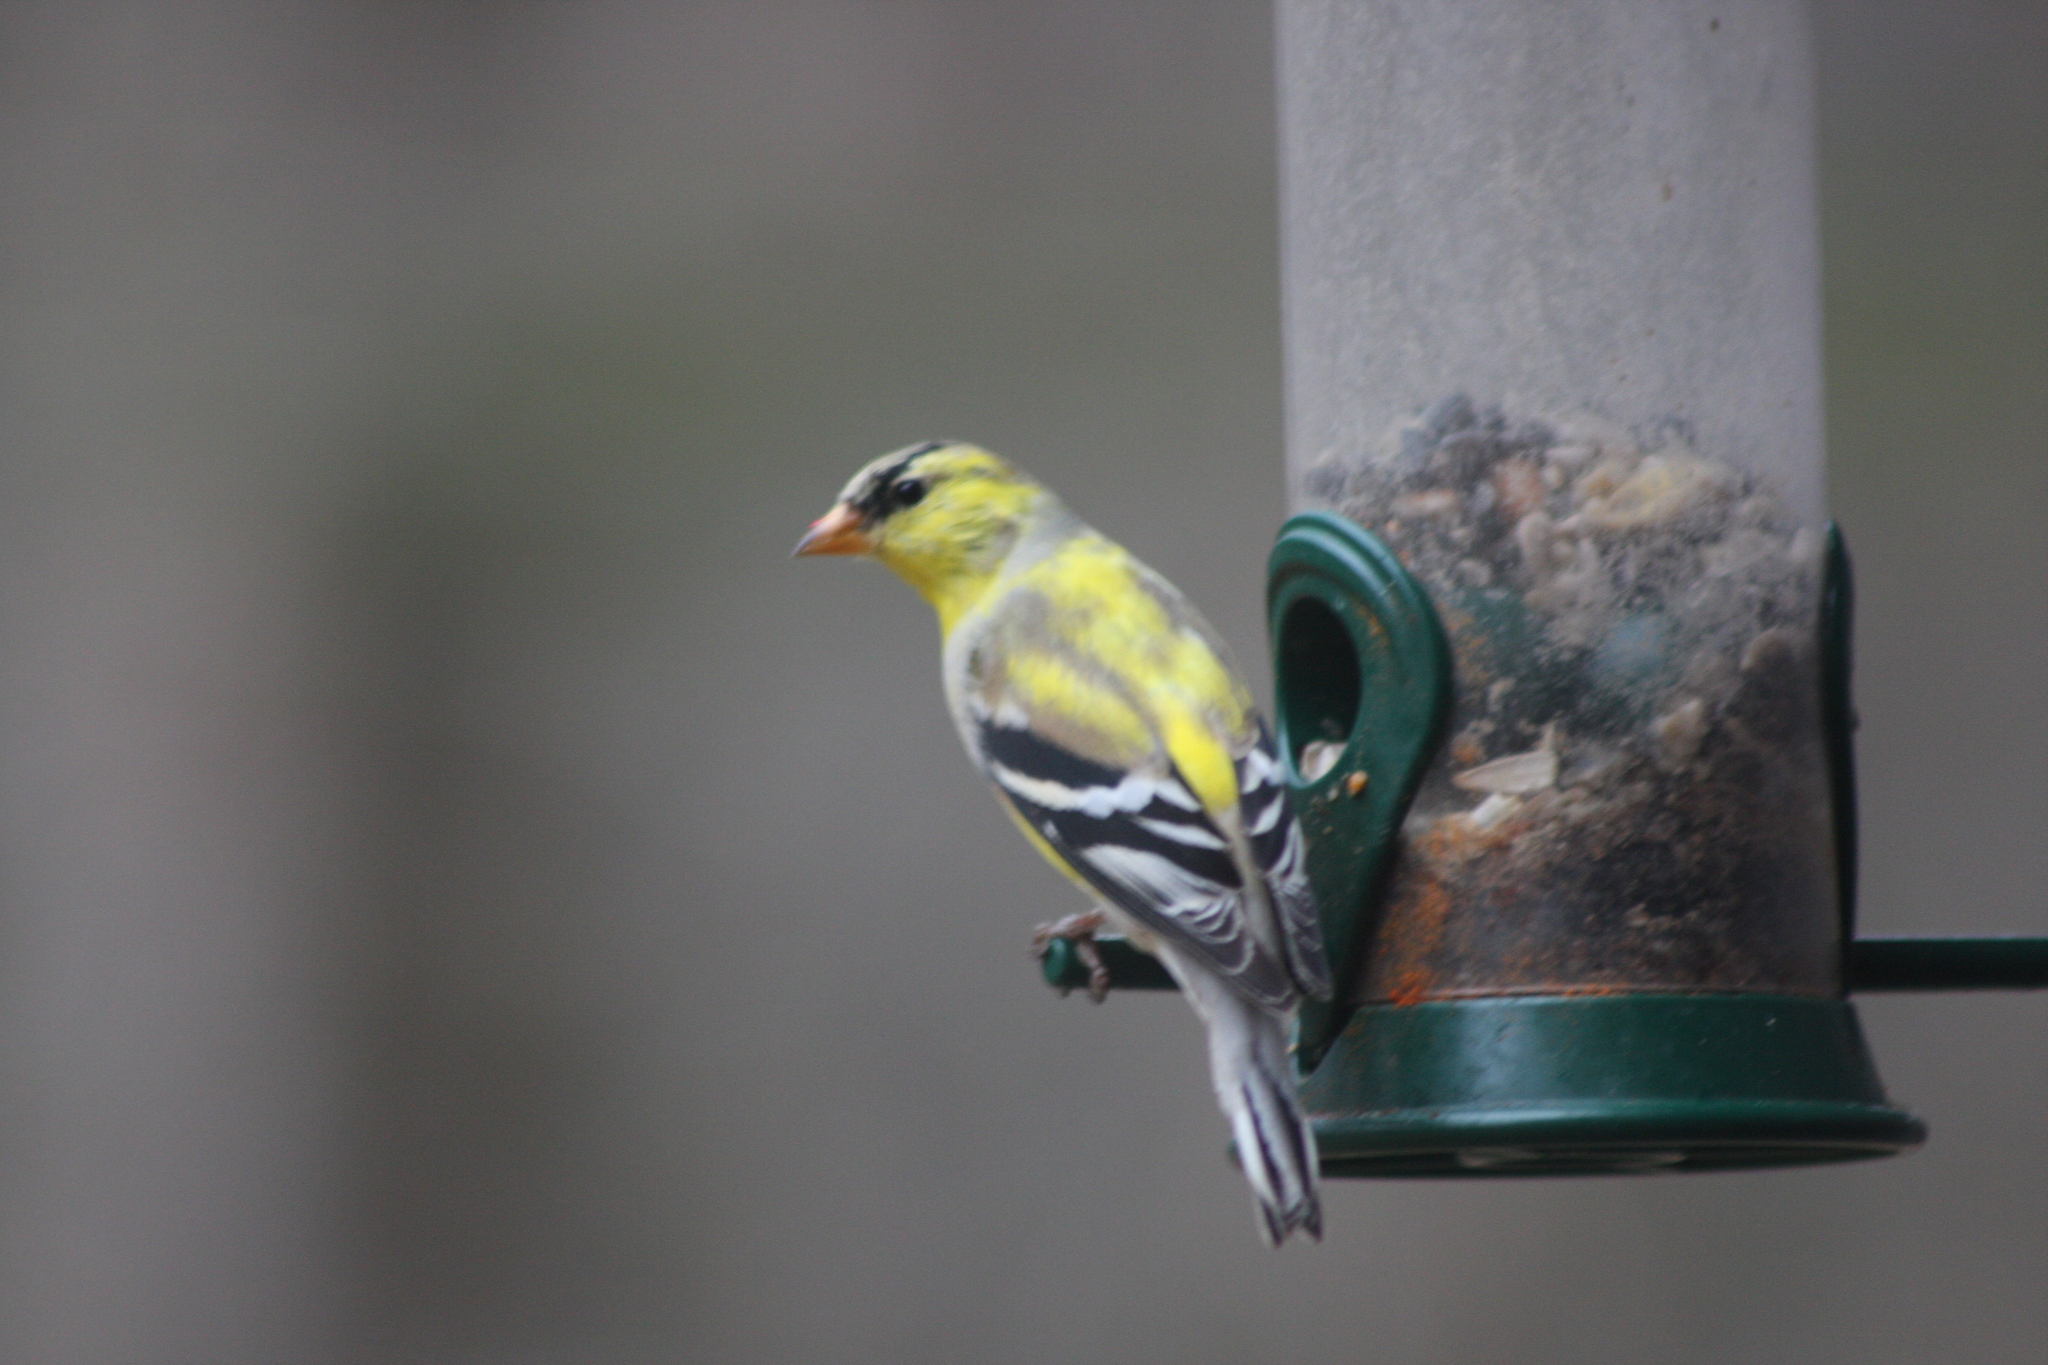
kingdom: Animalia
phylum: Chordata
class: Aves
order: Passeriformes
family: Fringillidae
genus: Spinus
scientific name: Spinus tristis
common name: American goldfinch
